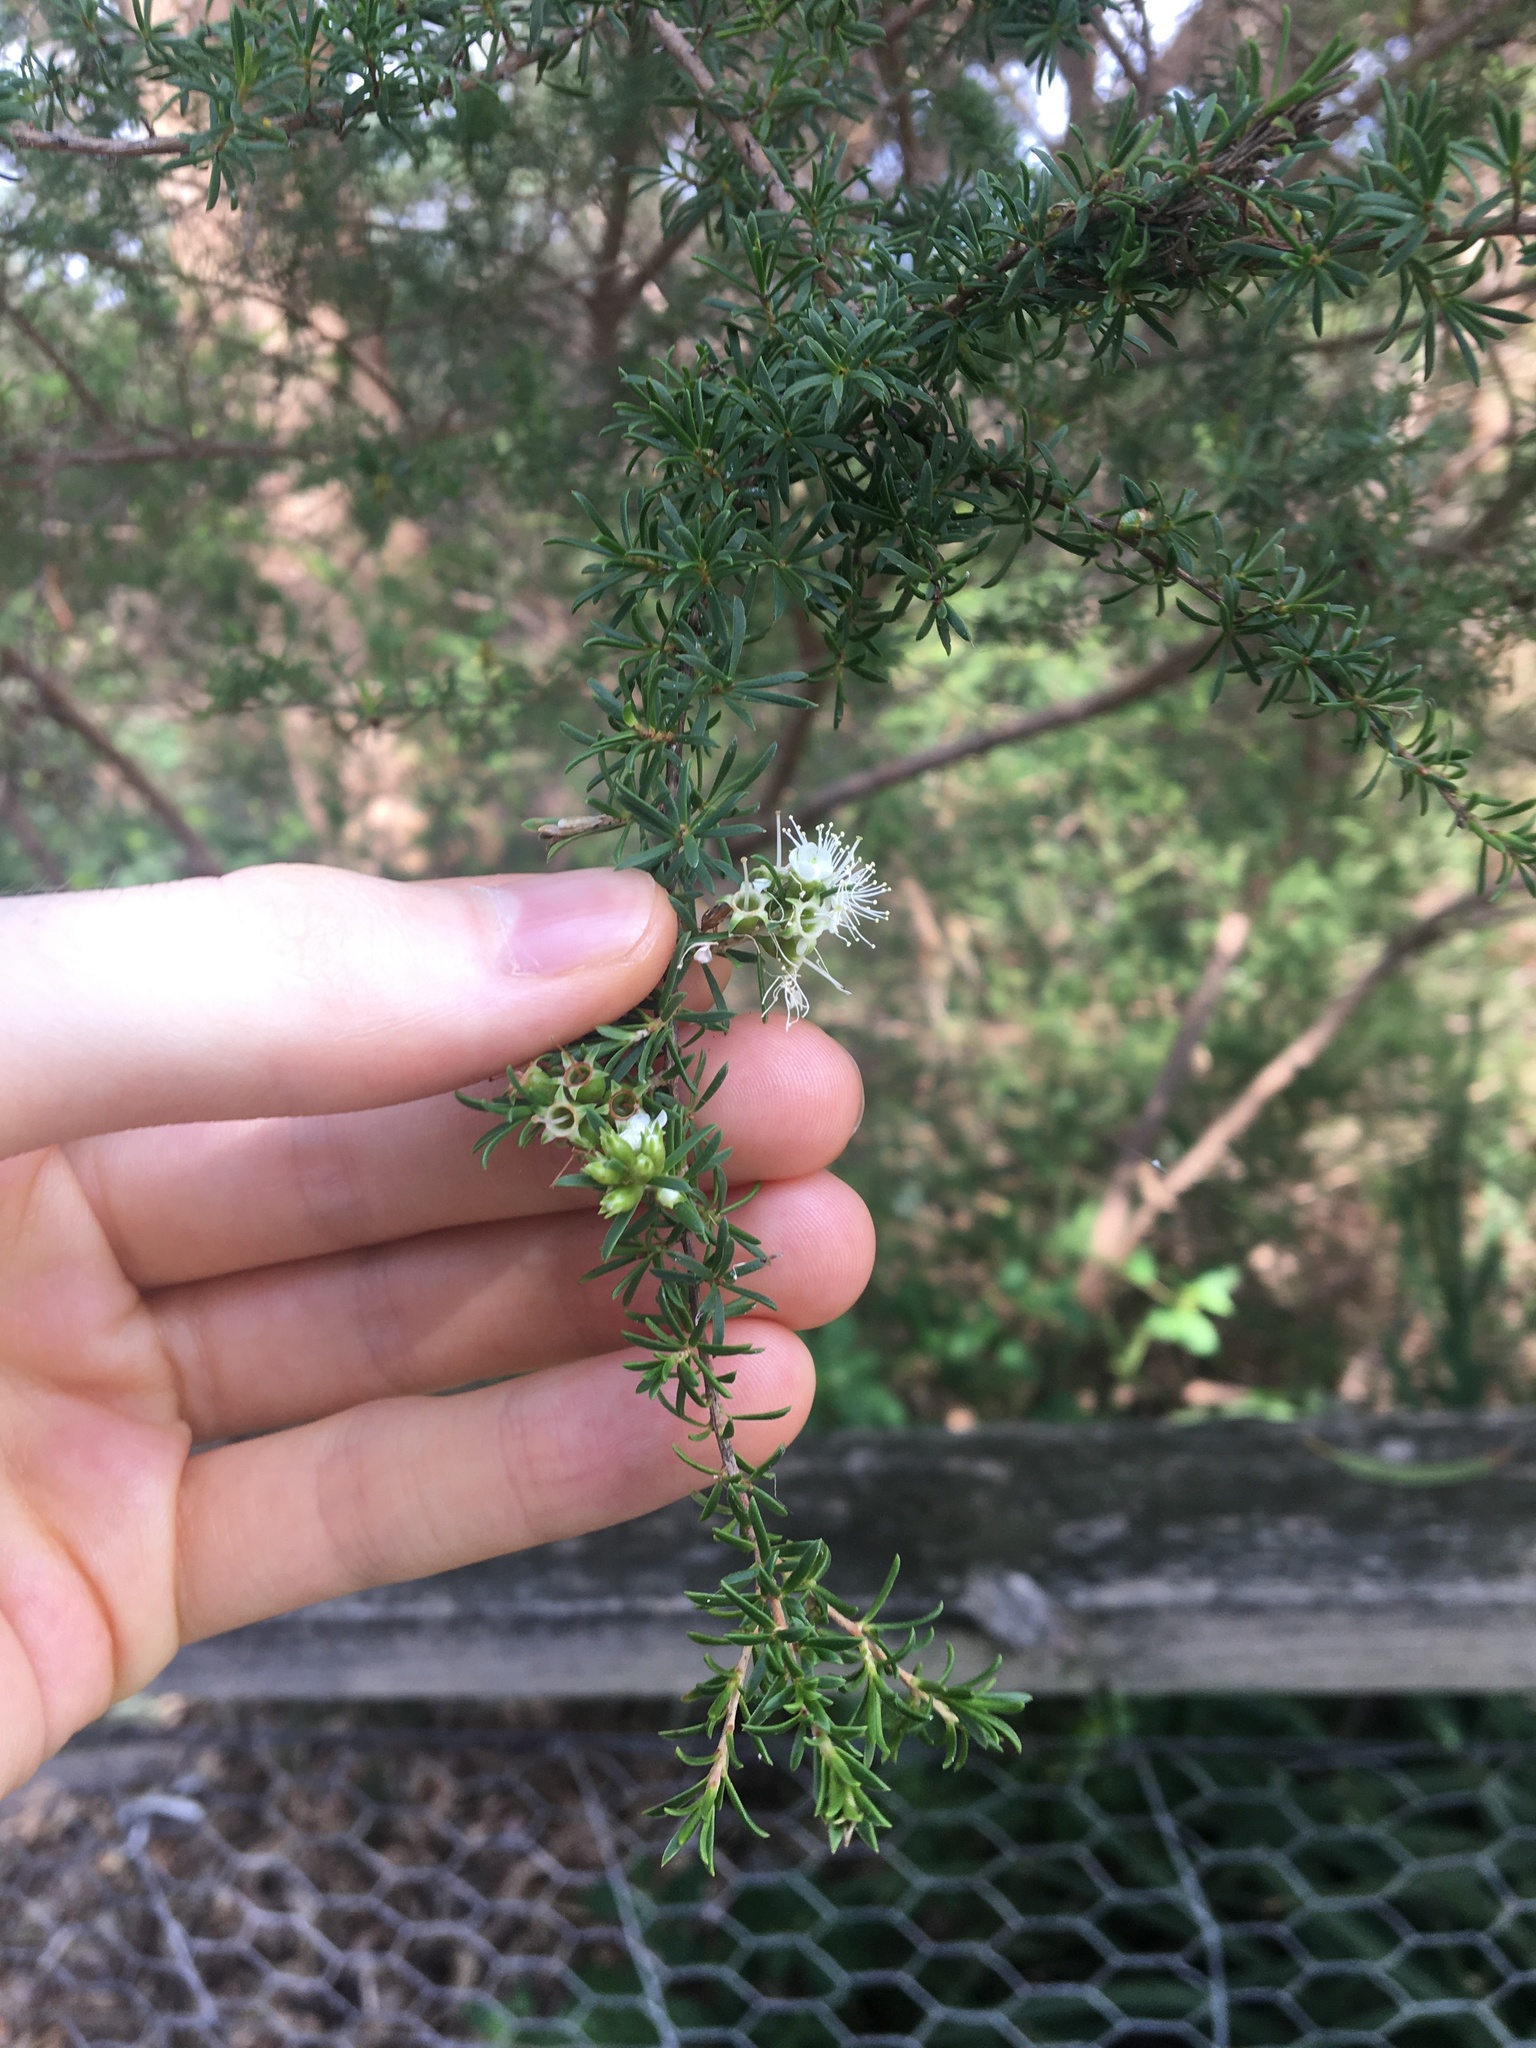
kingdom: Plantae
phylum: Tracheophyta
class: Magnoliopsida
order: Myrtales
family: Myrtaceae
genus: Kunzea
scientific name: Kunzea ambigua
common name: Tickbush
